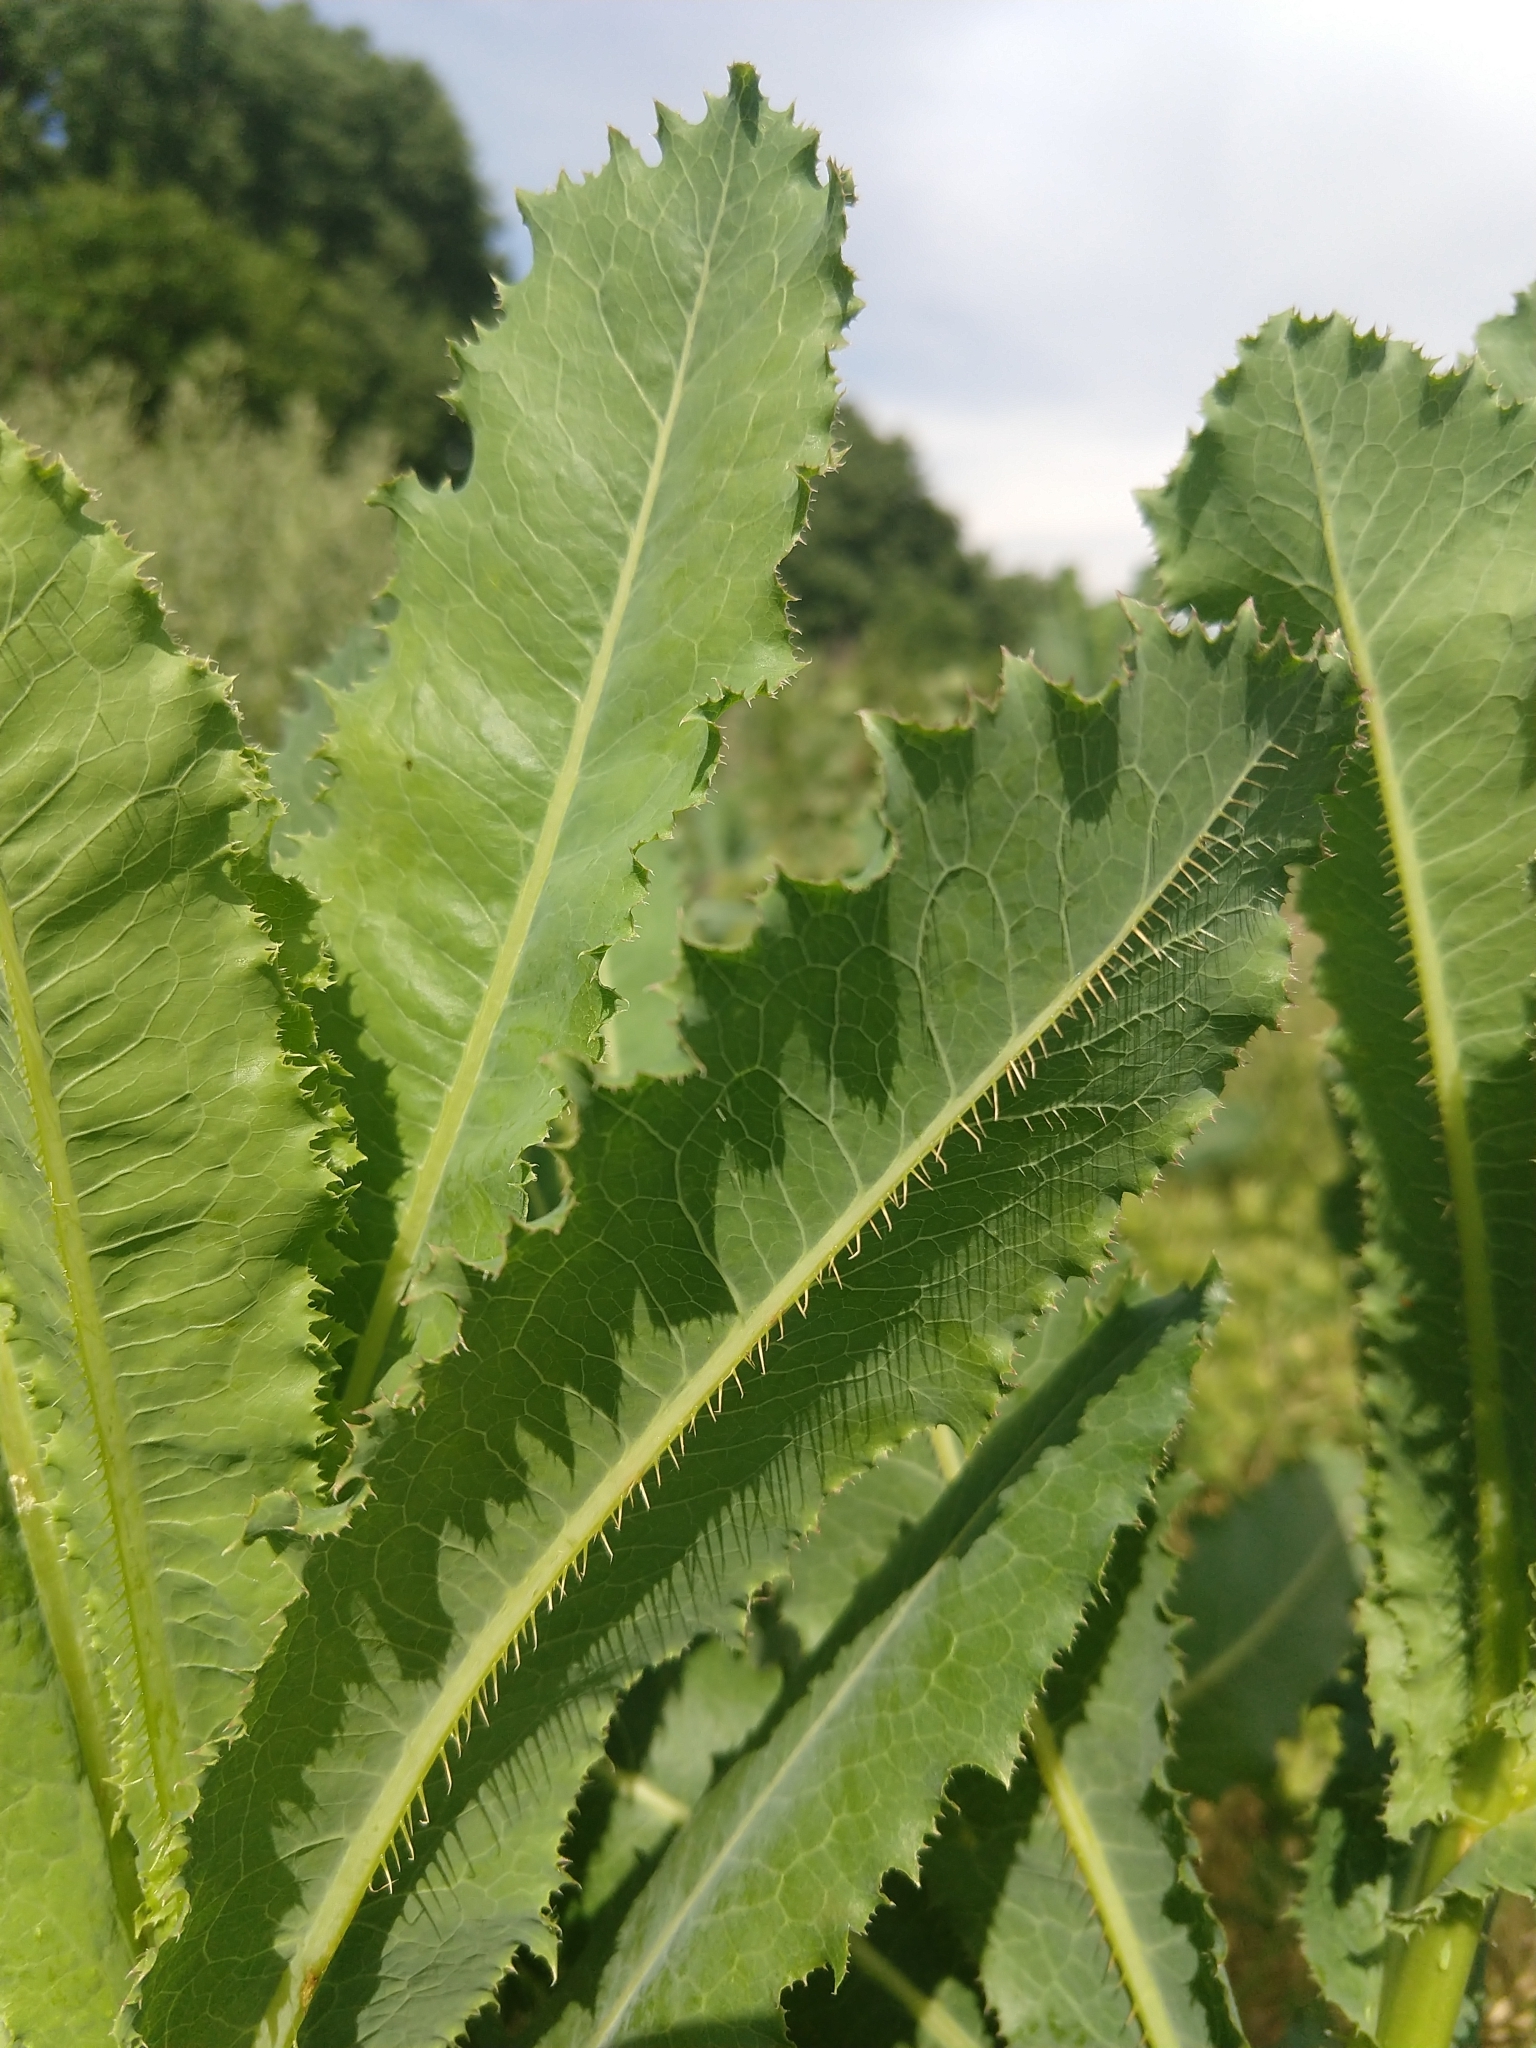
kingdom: Plantae
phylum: Tracheophyta
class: Magnoliopsida
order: Asterales
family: Asteraceae
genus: Lactuca
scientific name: Lactuca serriola
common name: Prickly lettuce
